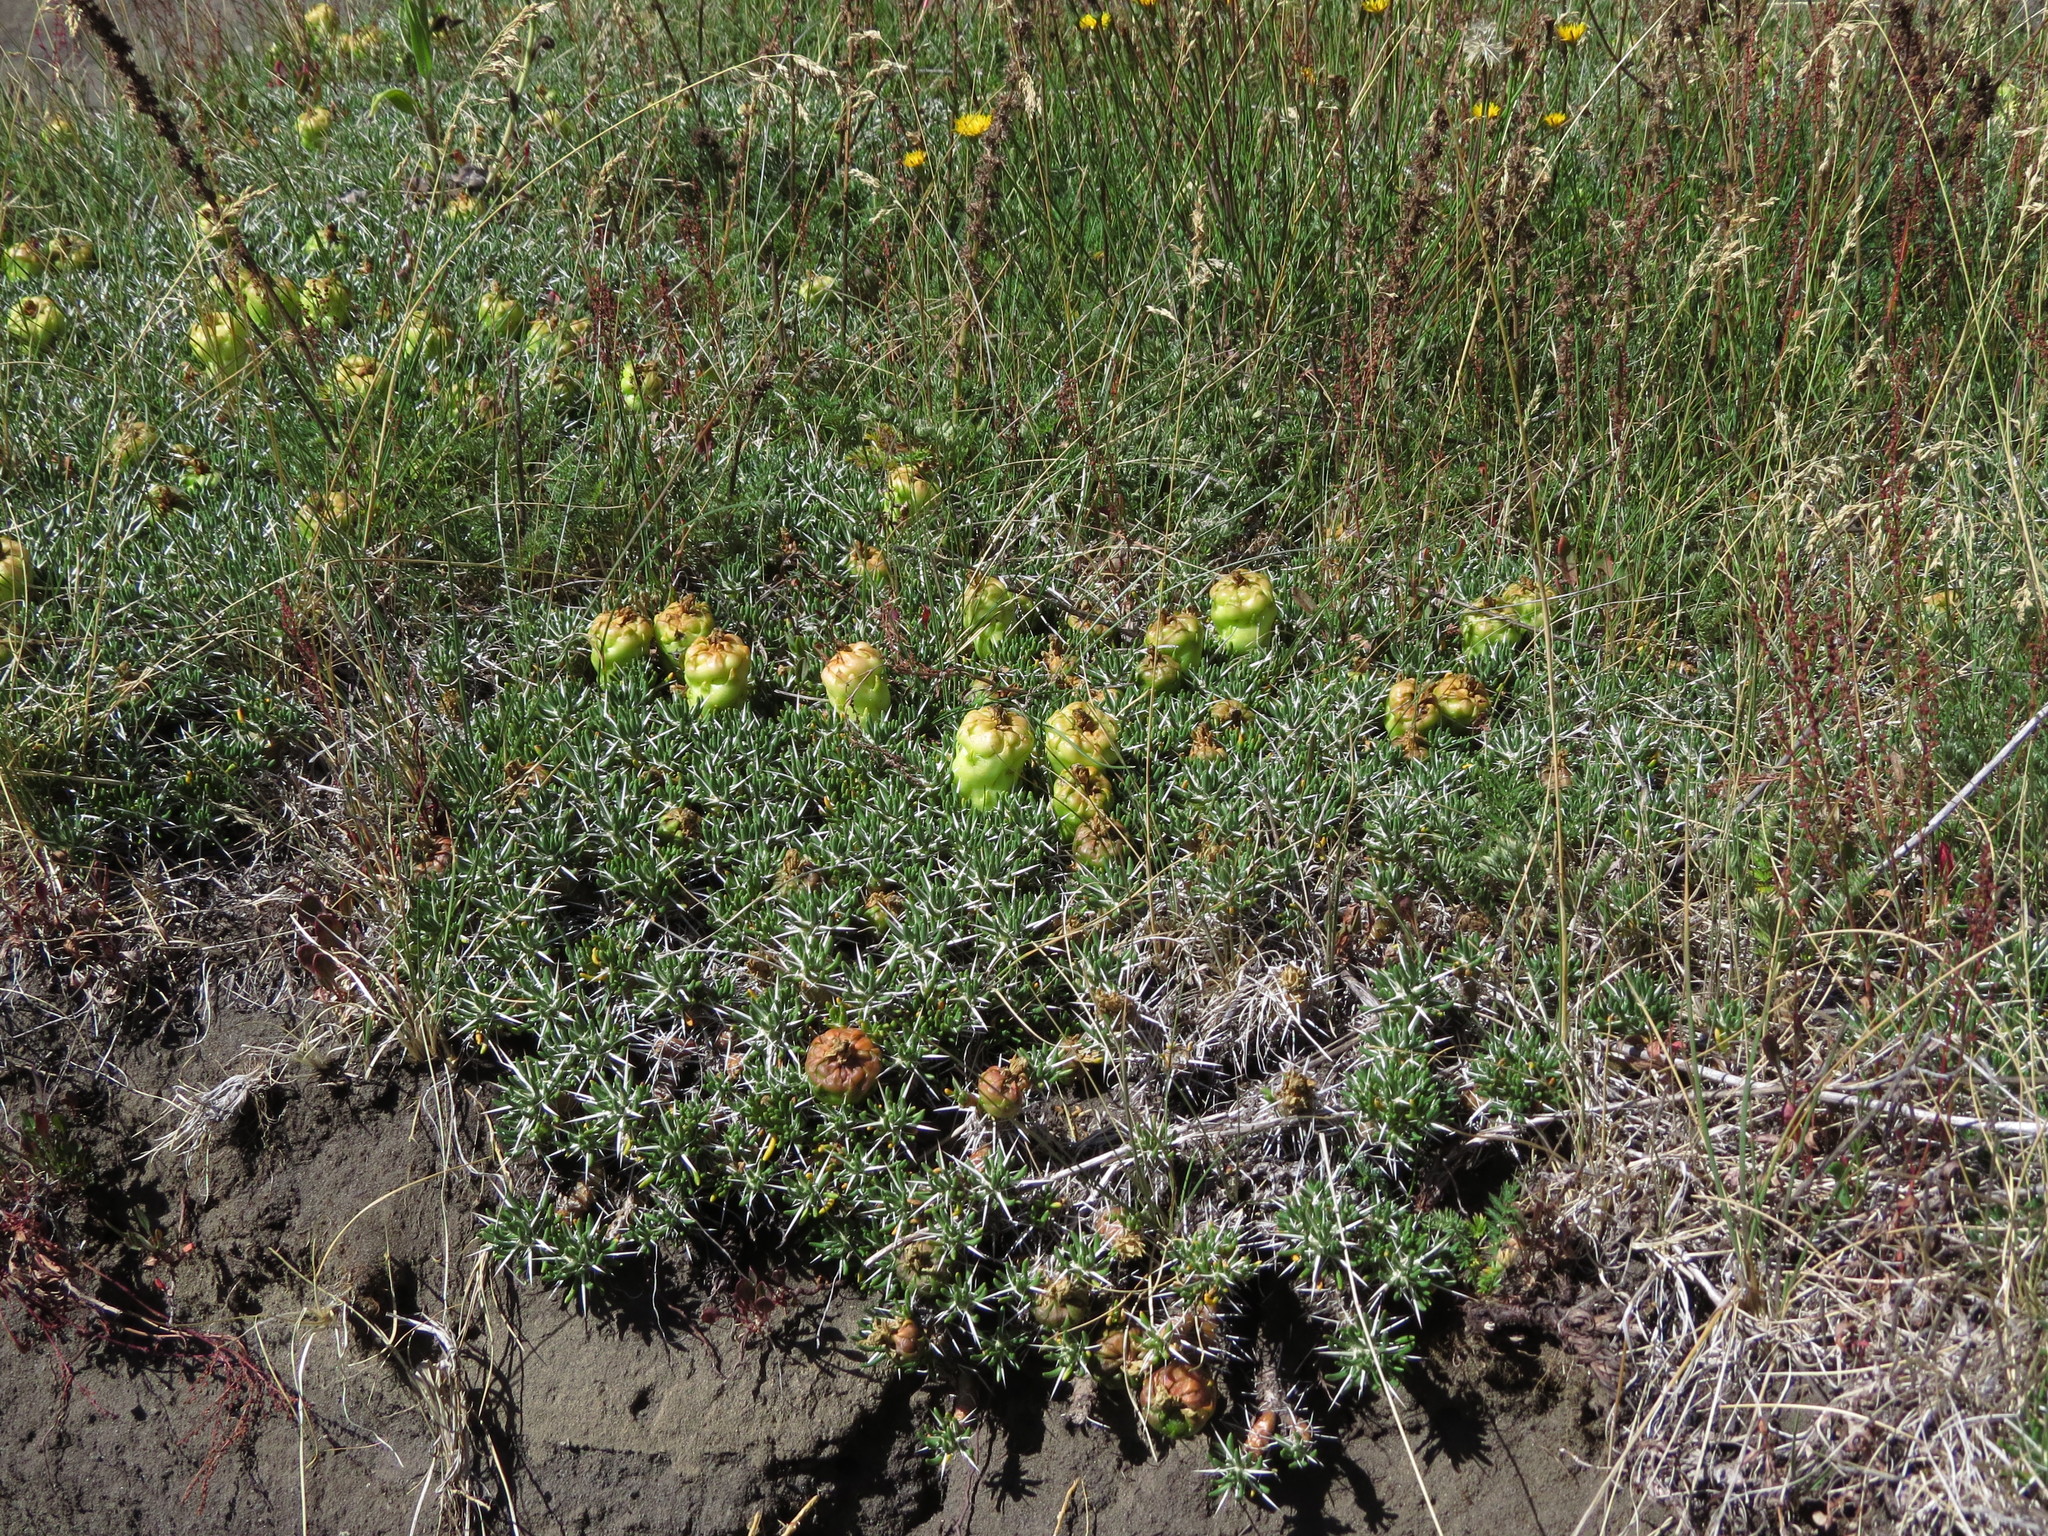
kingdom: Plantae
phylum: Tracheophyta
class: Magnoliopsida
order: Caryophyllales
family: Cactaceae
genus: Maihuenia
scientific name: Maihuenia poeppigii
